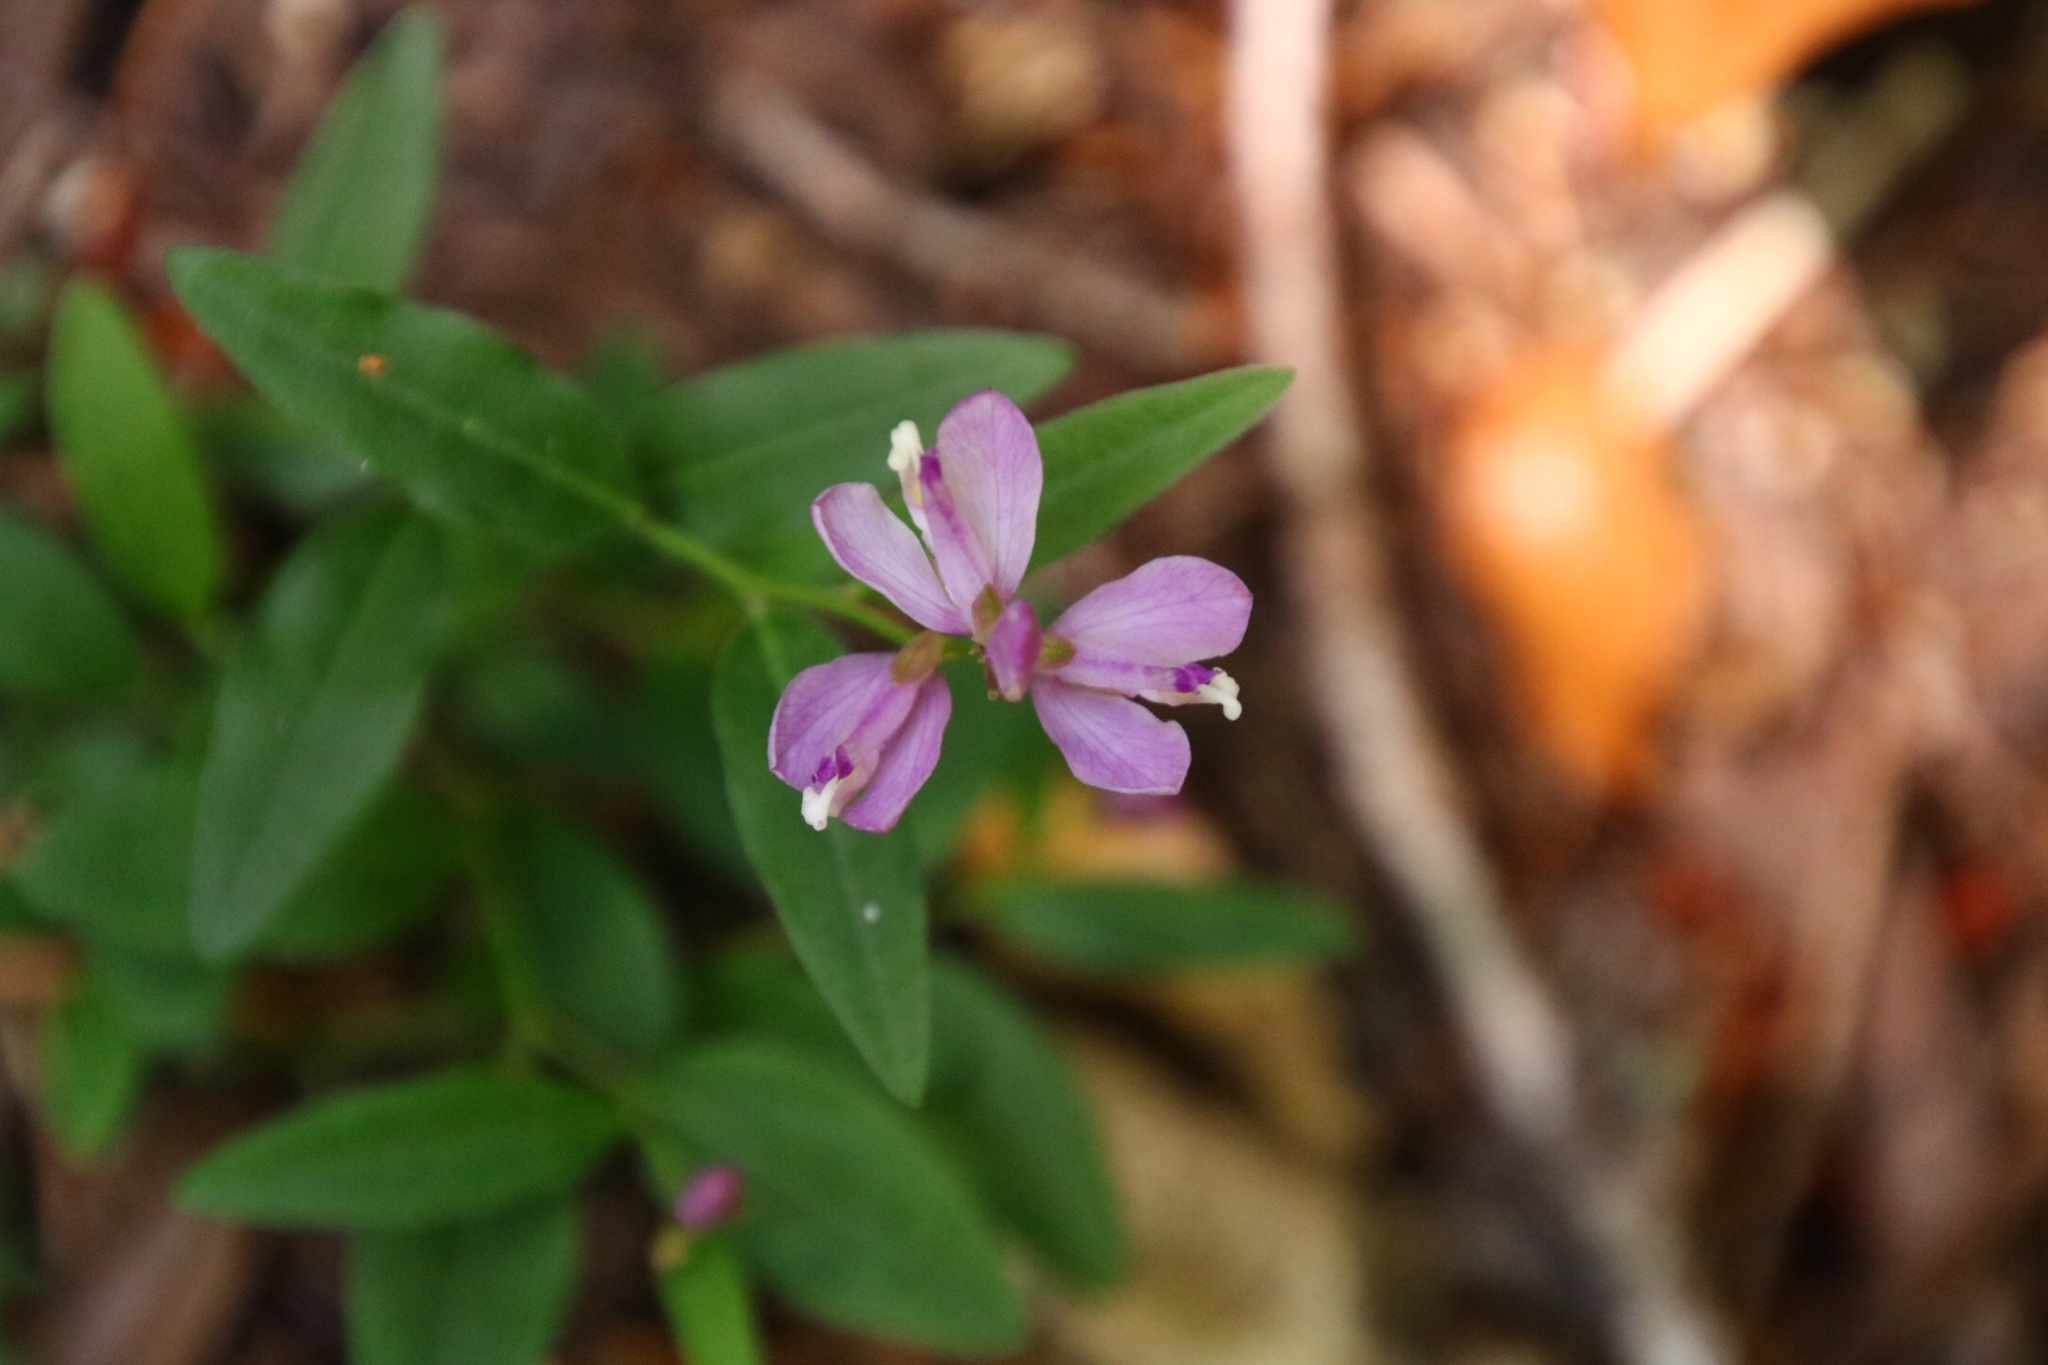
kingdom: Plantae
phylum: Tracheophyta
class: Magnoliopsida
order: Fabales
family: Polygalaceae
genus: Rhinotropis
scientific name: Rhinotropis californica
